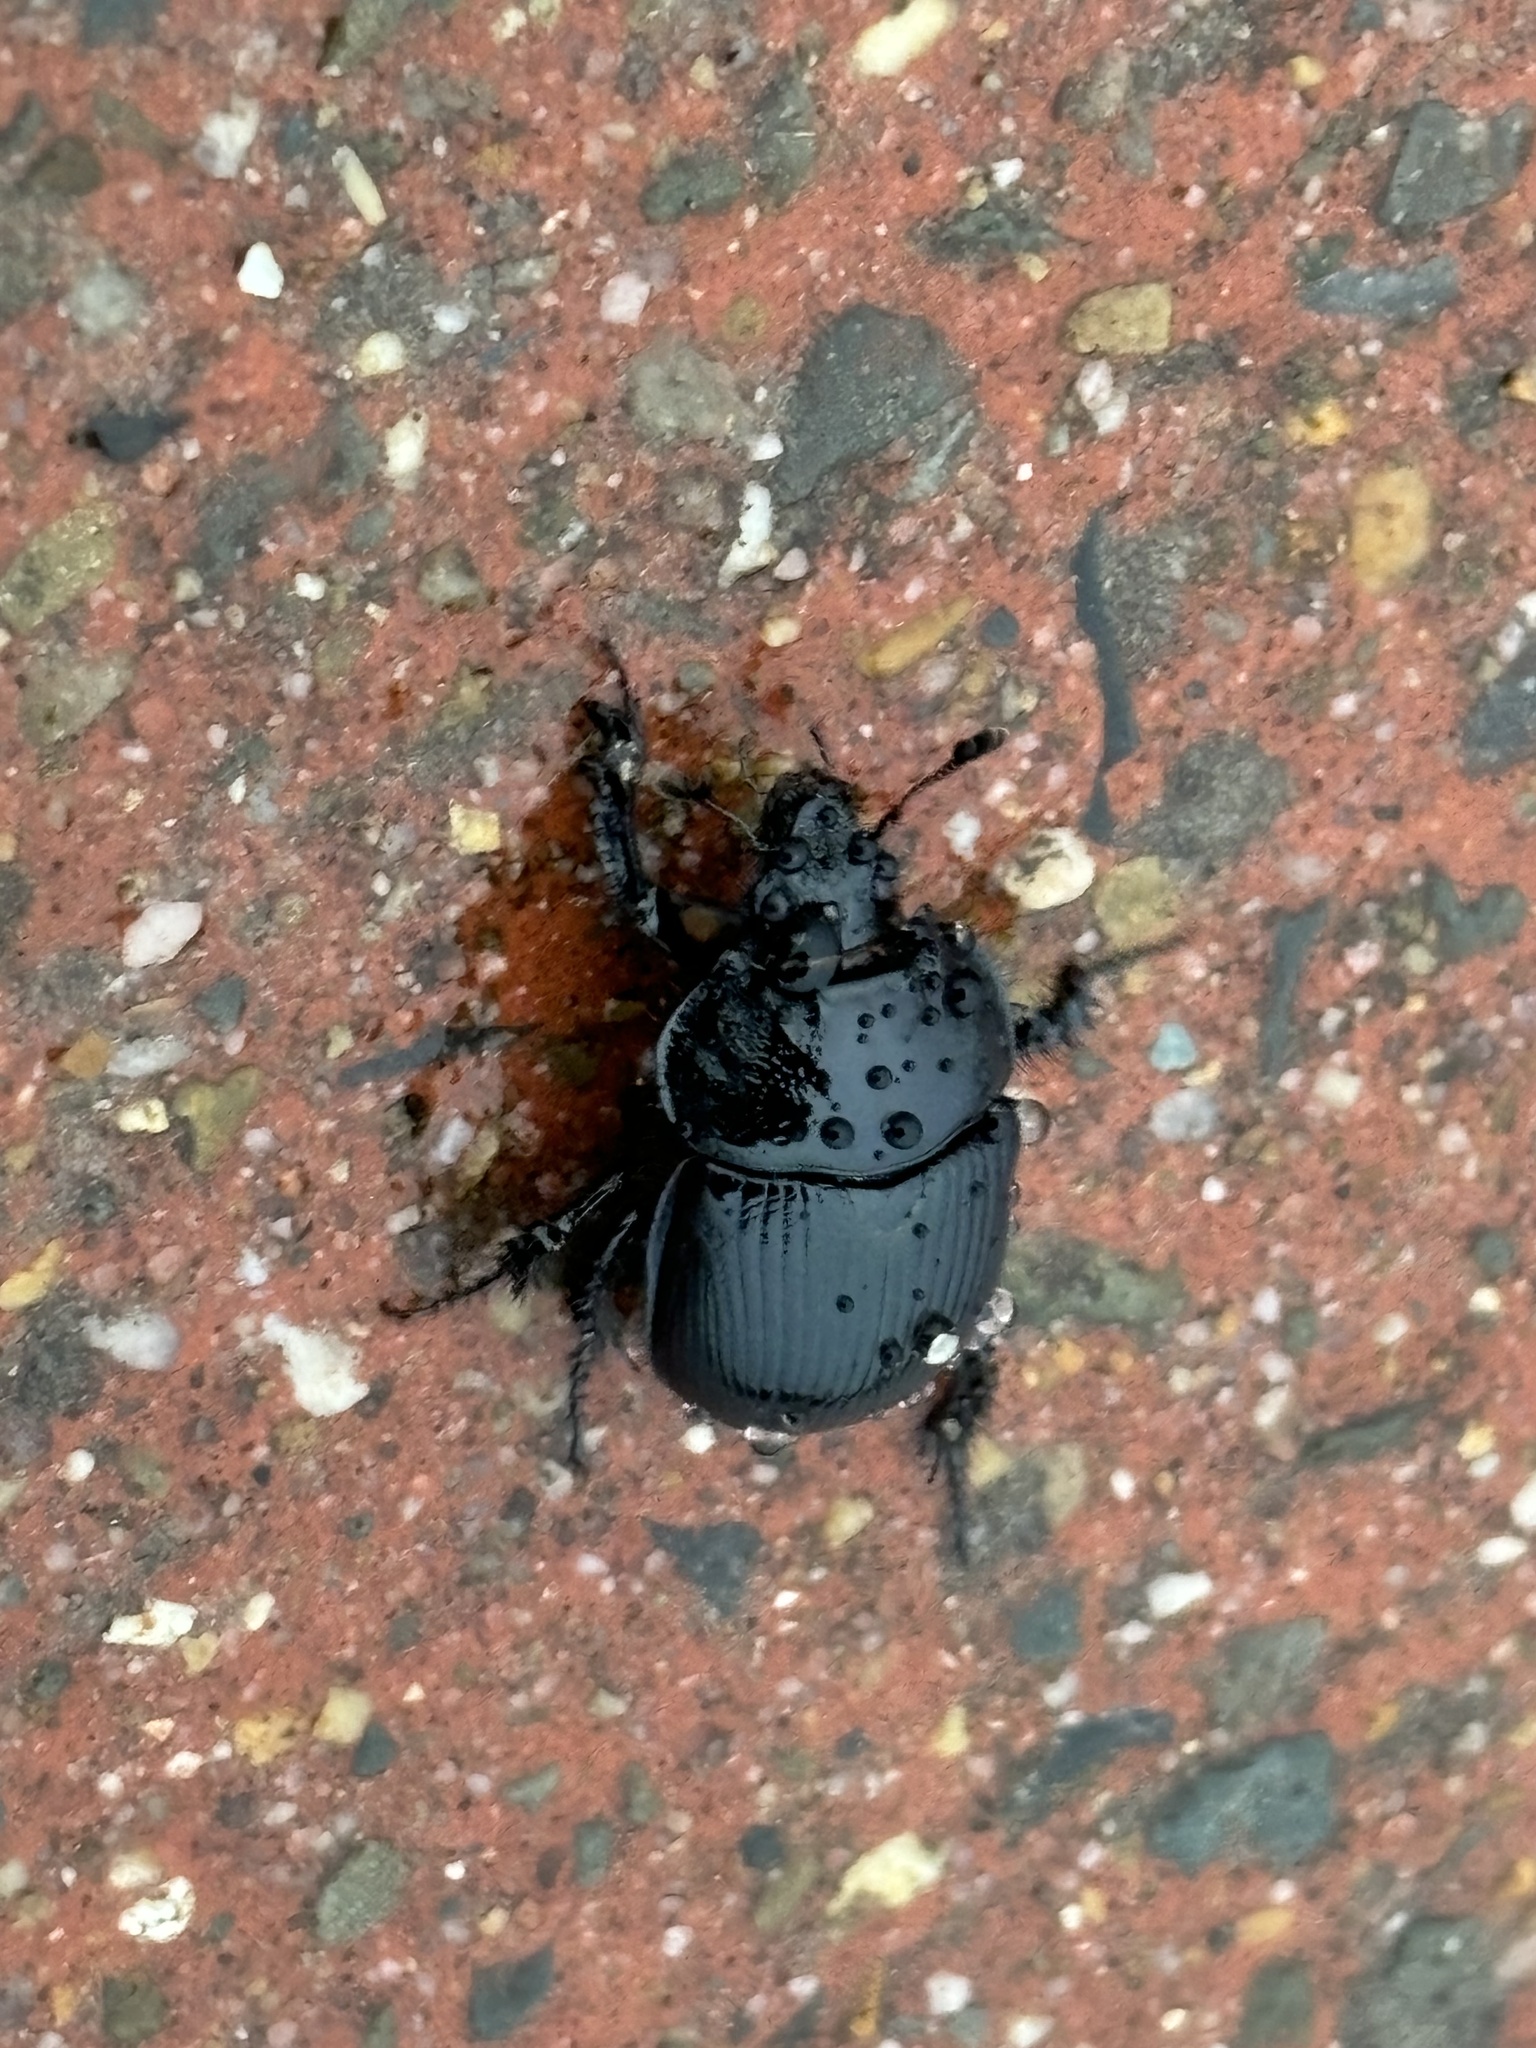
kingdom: Animalia
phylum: Arthropoda
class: Insecta
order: Coleoptera
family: Geotrupidae
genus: Typhaeus
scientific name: Typhaeus typhoeus
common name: Minotaur beetle
